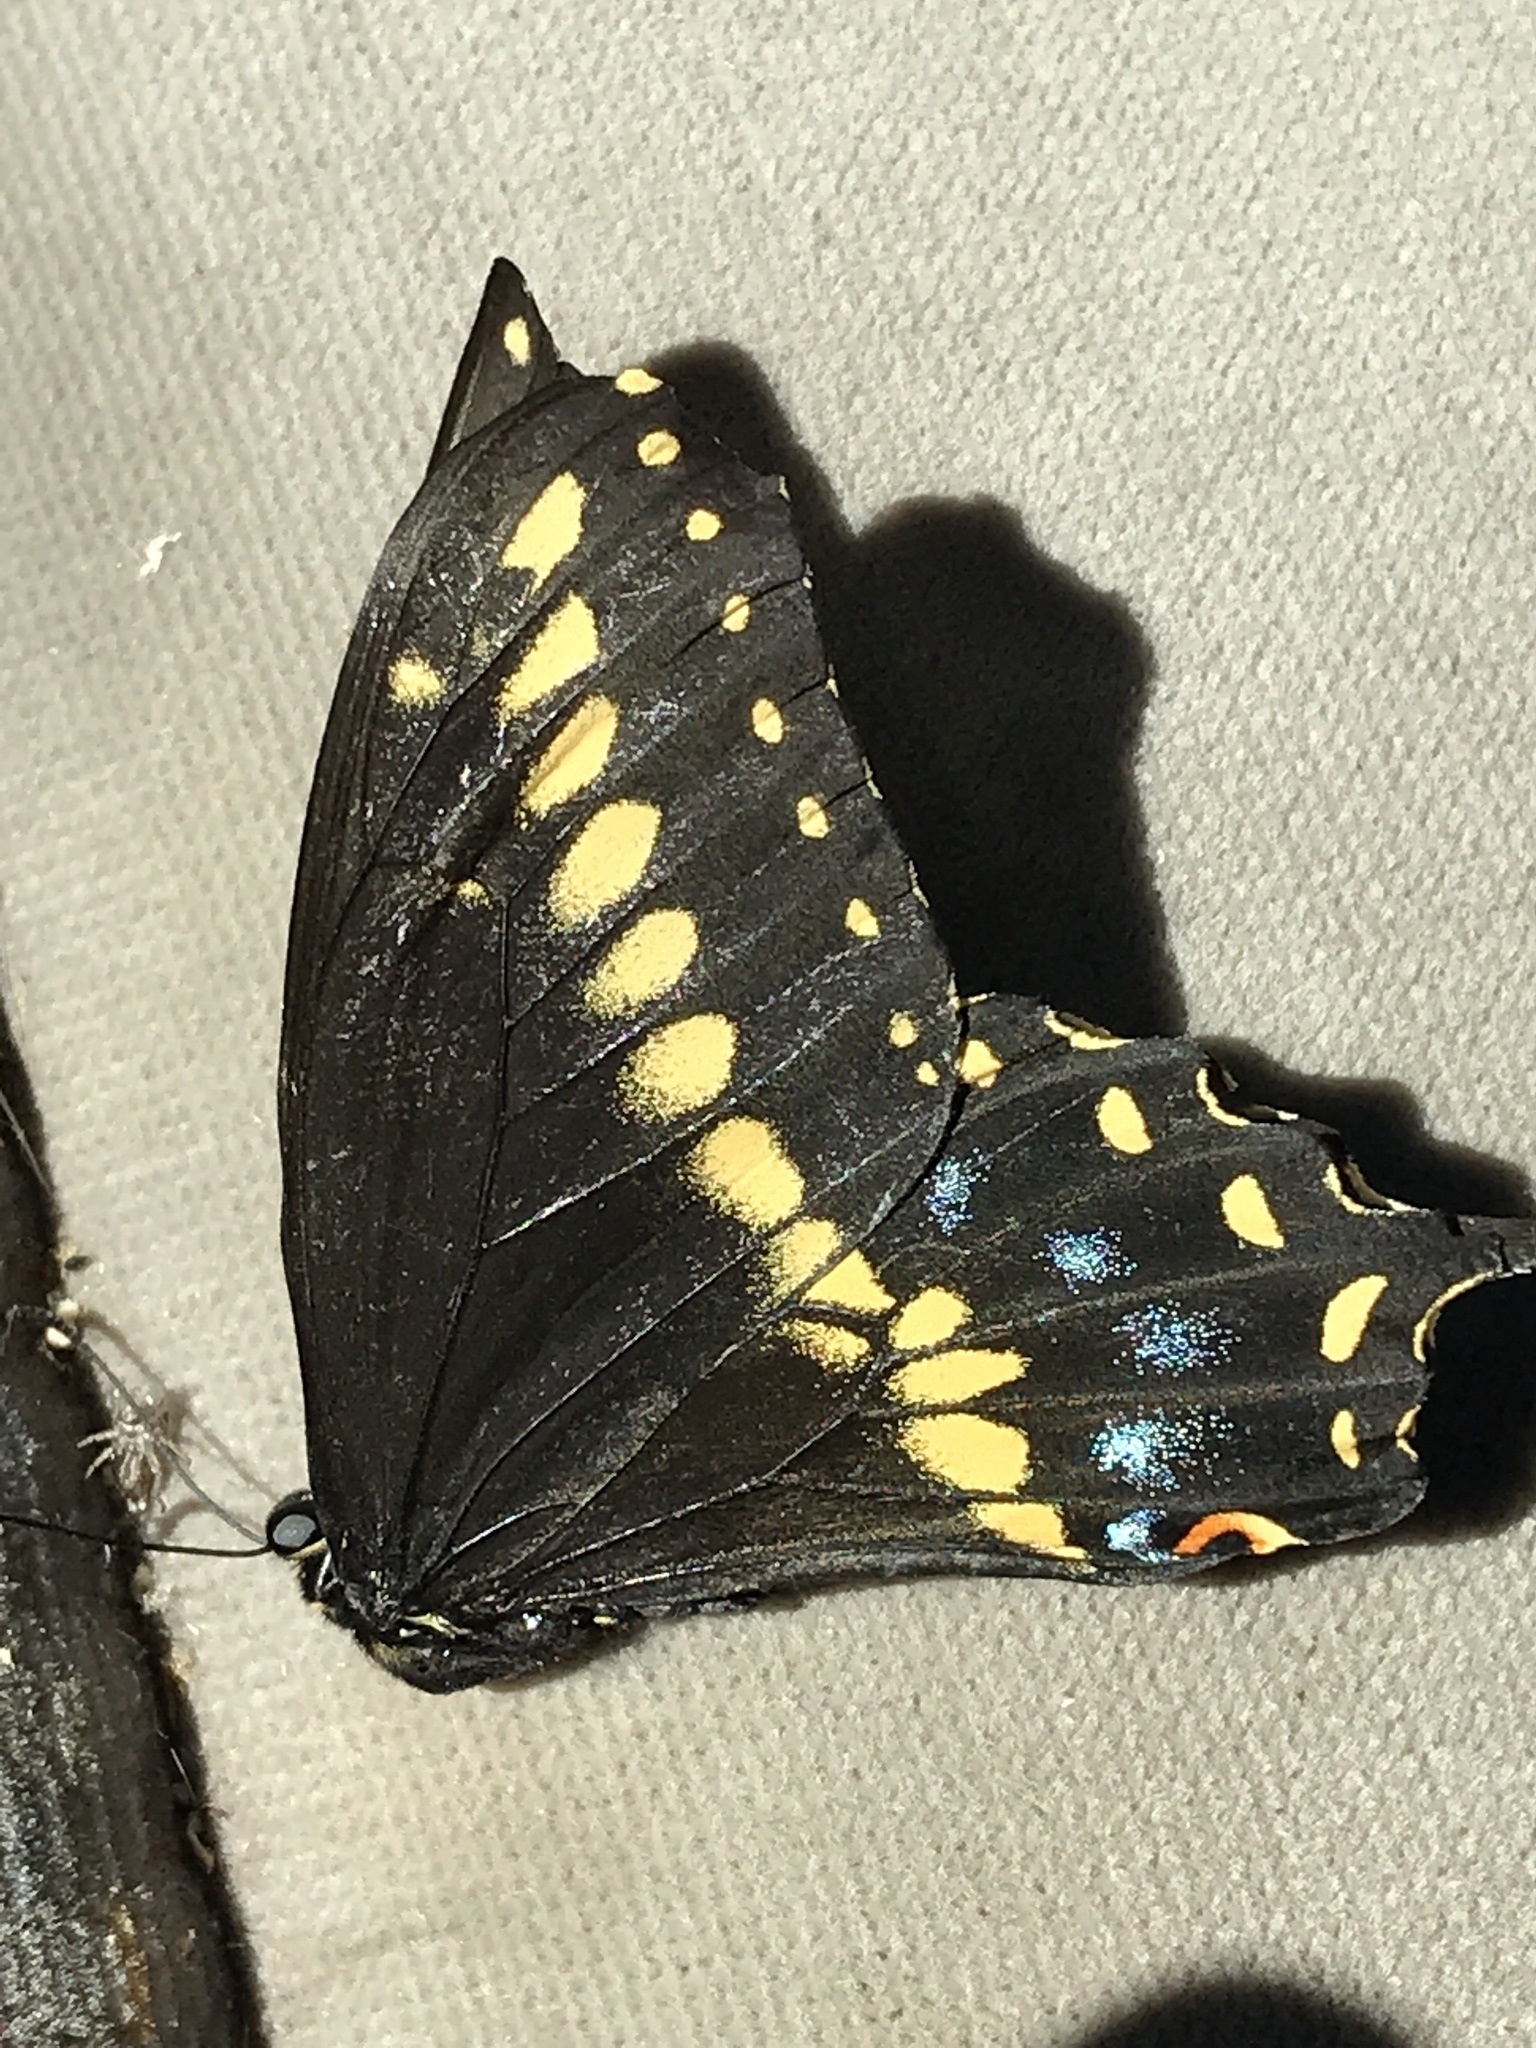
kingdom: Animalia
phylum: Arthropoda
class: Insecta
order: Lepidoptera
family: Papilionidae
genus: Papilio
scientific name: Papilio polyxenes
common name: Black swallowtail
